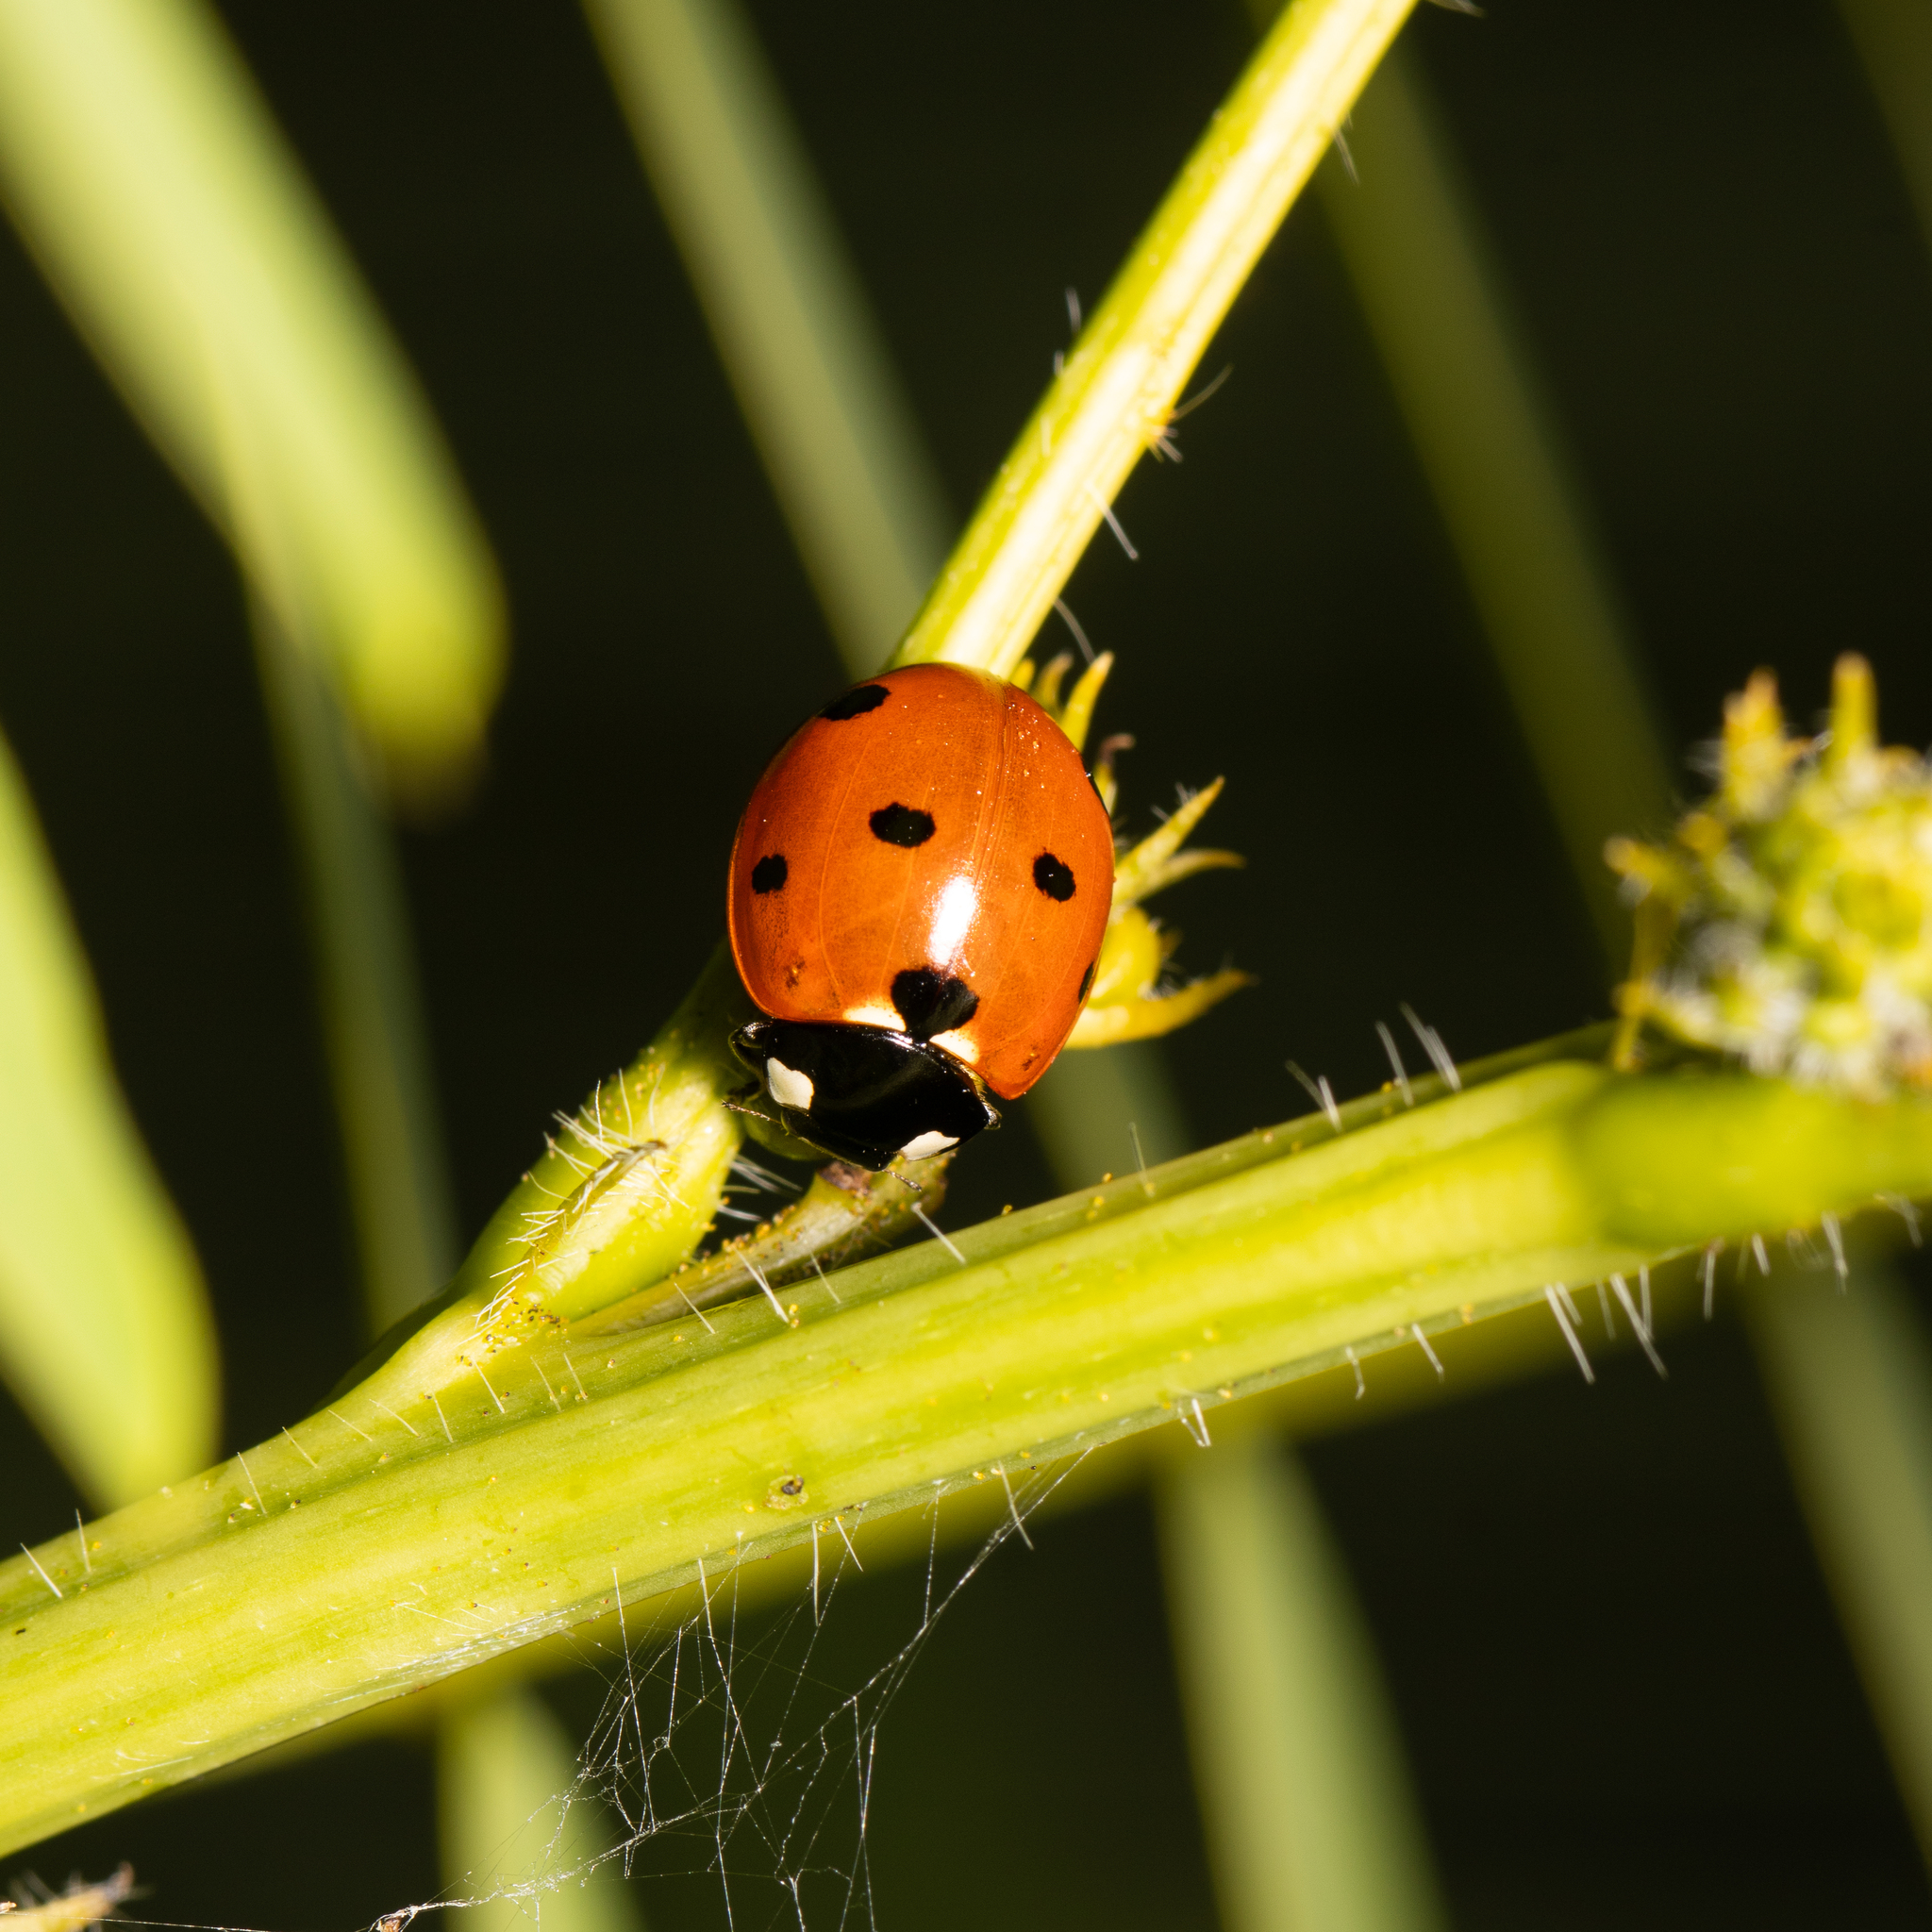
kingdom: Animalia
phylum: Arthropoda
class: Insecta
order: Coleoptera
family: Coccinellidae
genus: Coccinella
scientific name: Coccinella septempunctata
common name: Sevenspotted lady beetle
